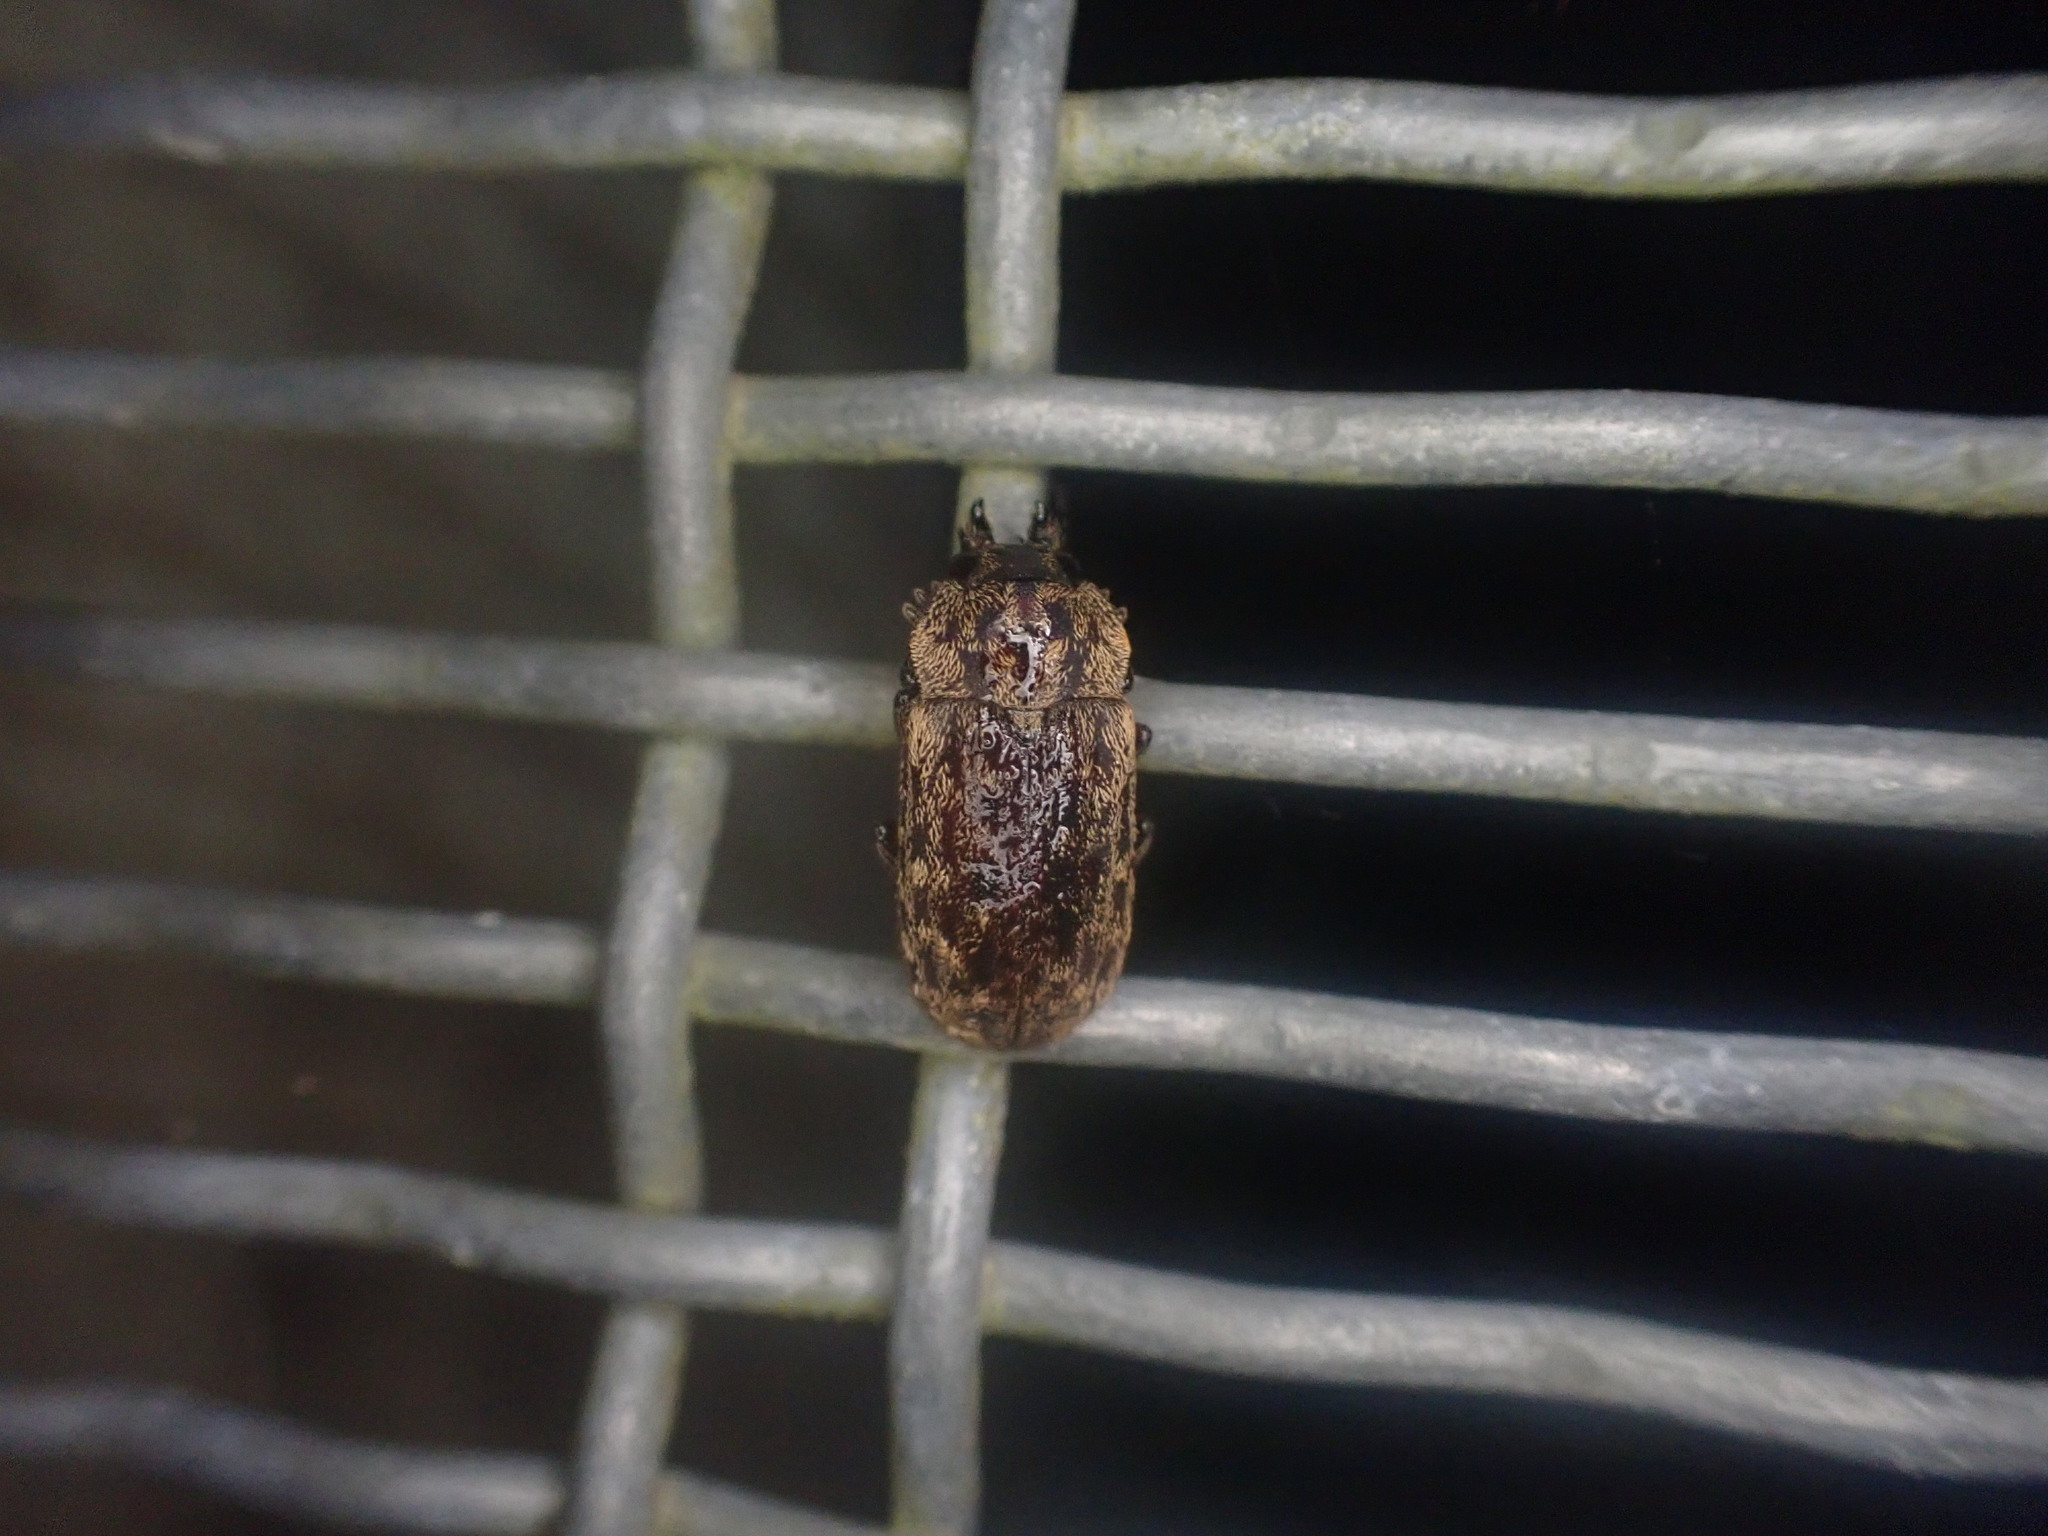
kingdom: Animalia
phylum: Arthropoda
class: Insecta
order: Coleoptera
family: Lucanidae
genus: Mitophyllus
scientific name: Mitophyllus parrianus
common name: Parry's stag beetle
